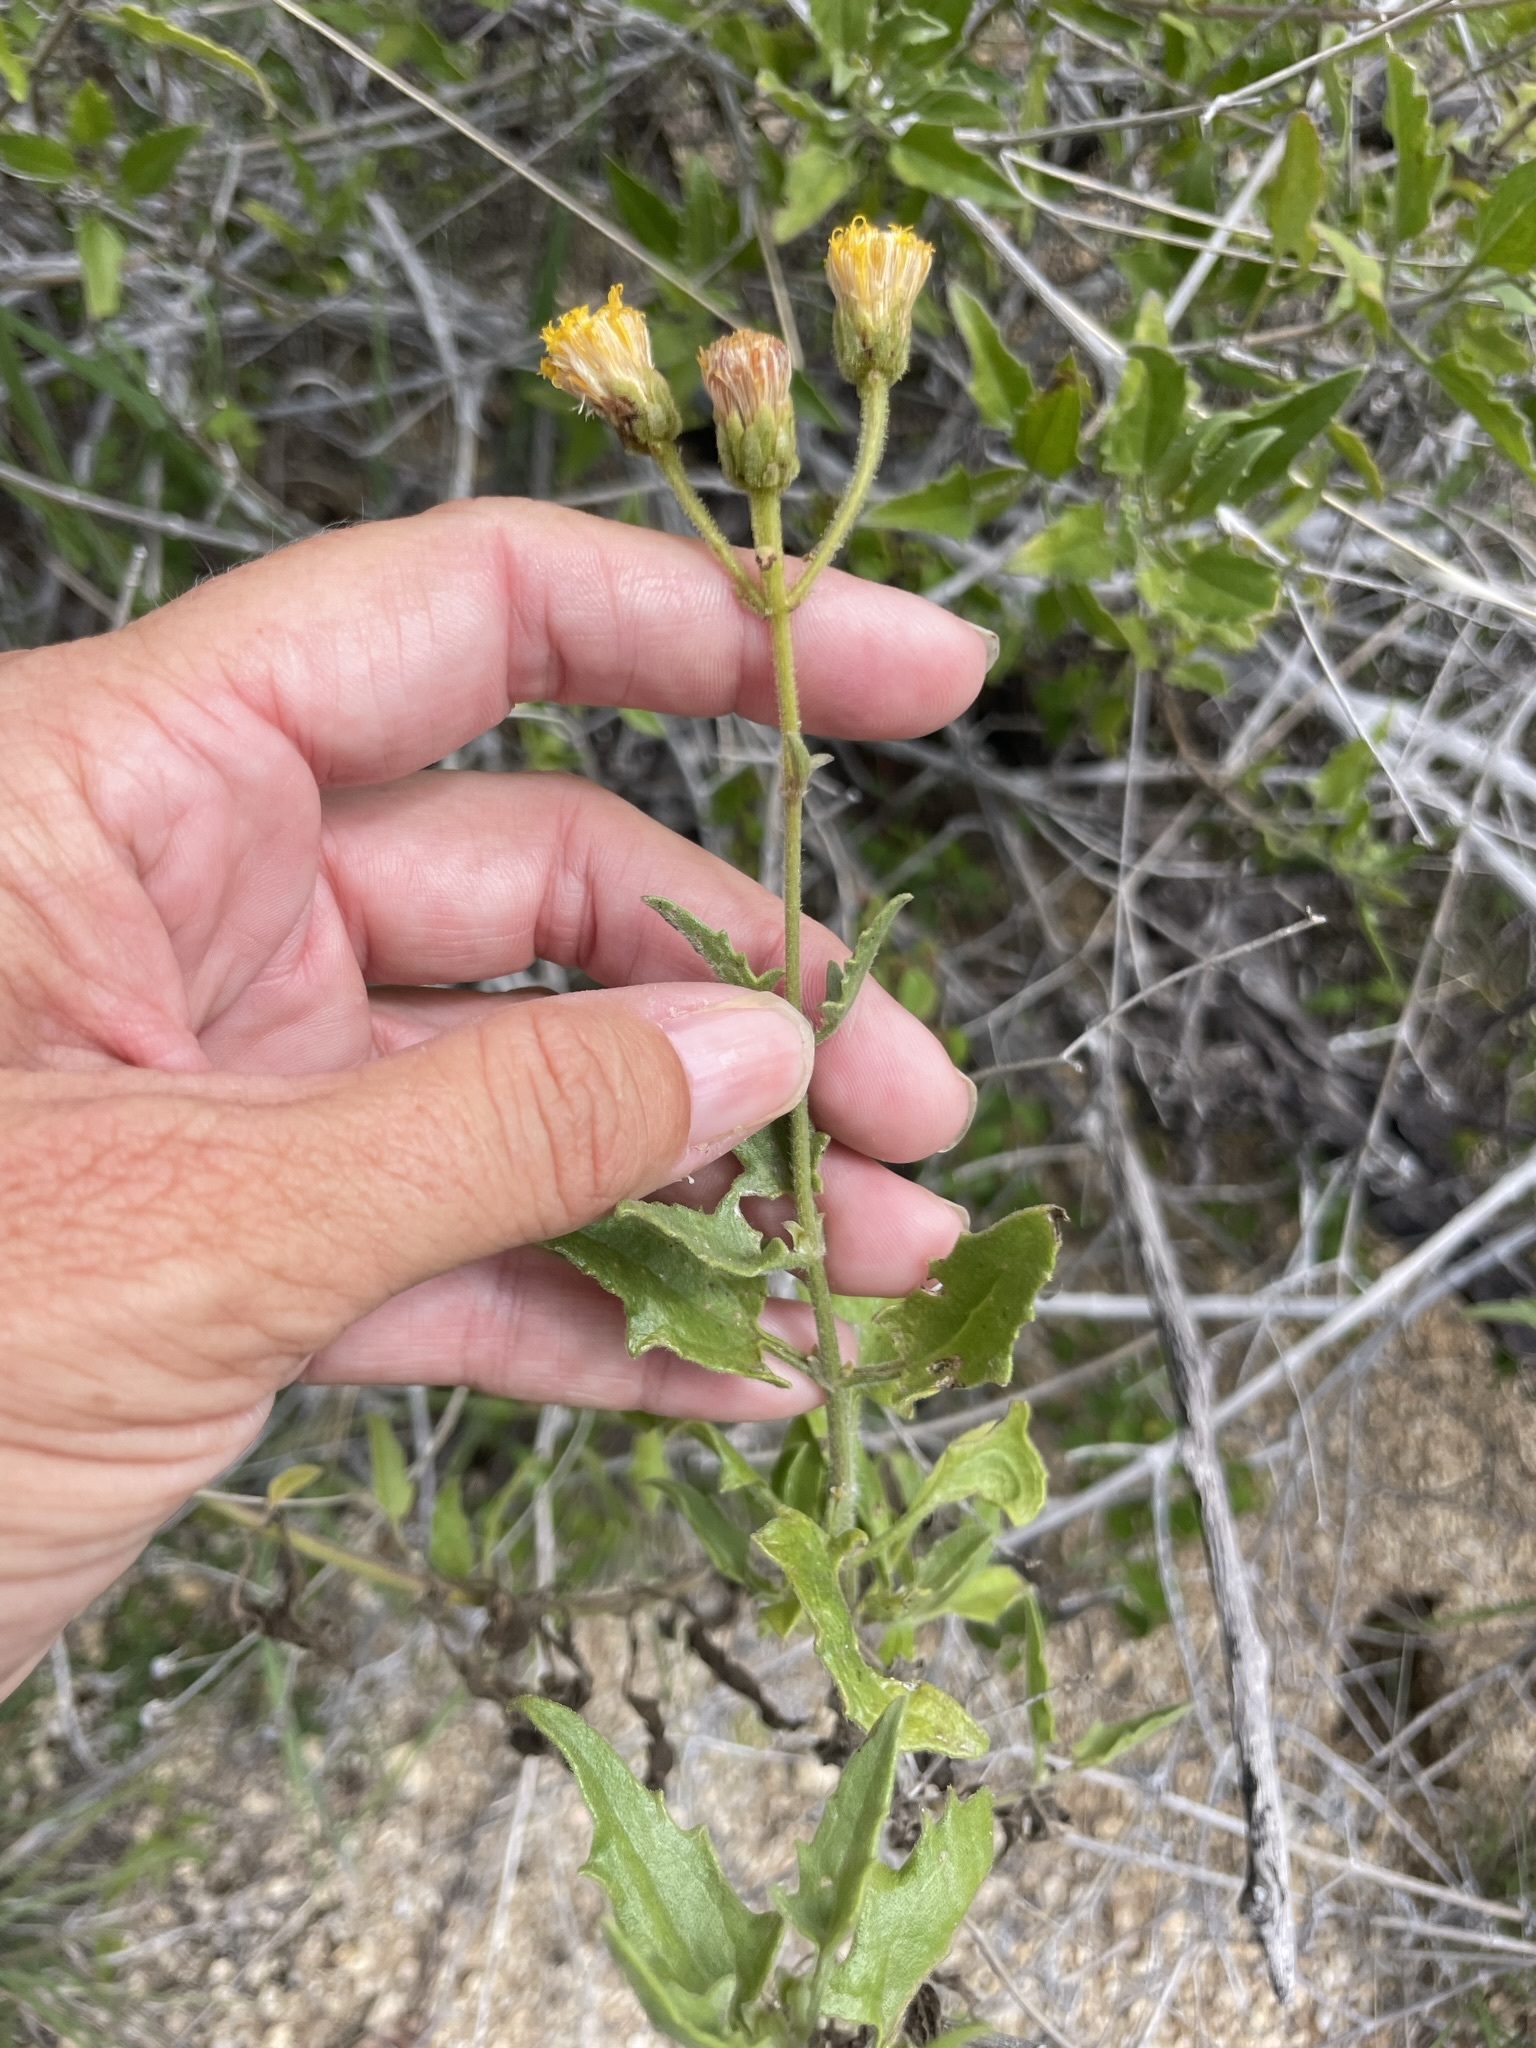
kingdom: Plantae
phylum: Tracheophyta
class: Magnoliopsida
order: Asterales
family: Asteraceae
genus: Bebbia
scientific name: Bebbia atriplicifolia
